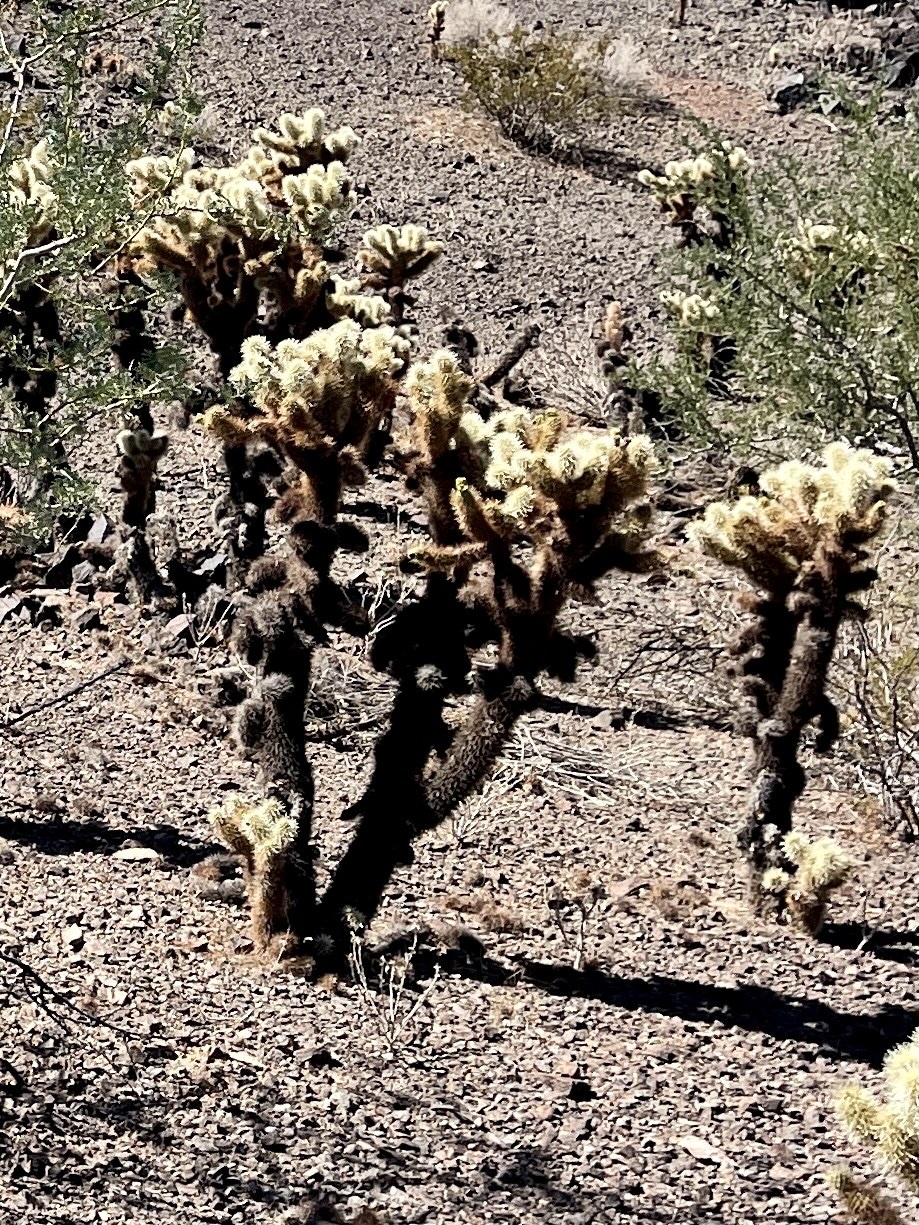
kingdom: Plantae
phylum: Tracheophyta
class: Magnoliopsida
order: Caryophyllales
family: Cactaceae
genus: Cylindropuntia
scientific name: Cylindropuntia fosbergii
